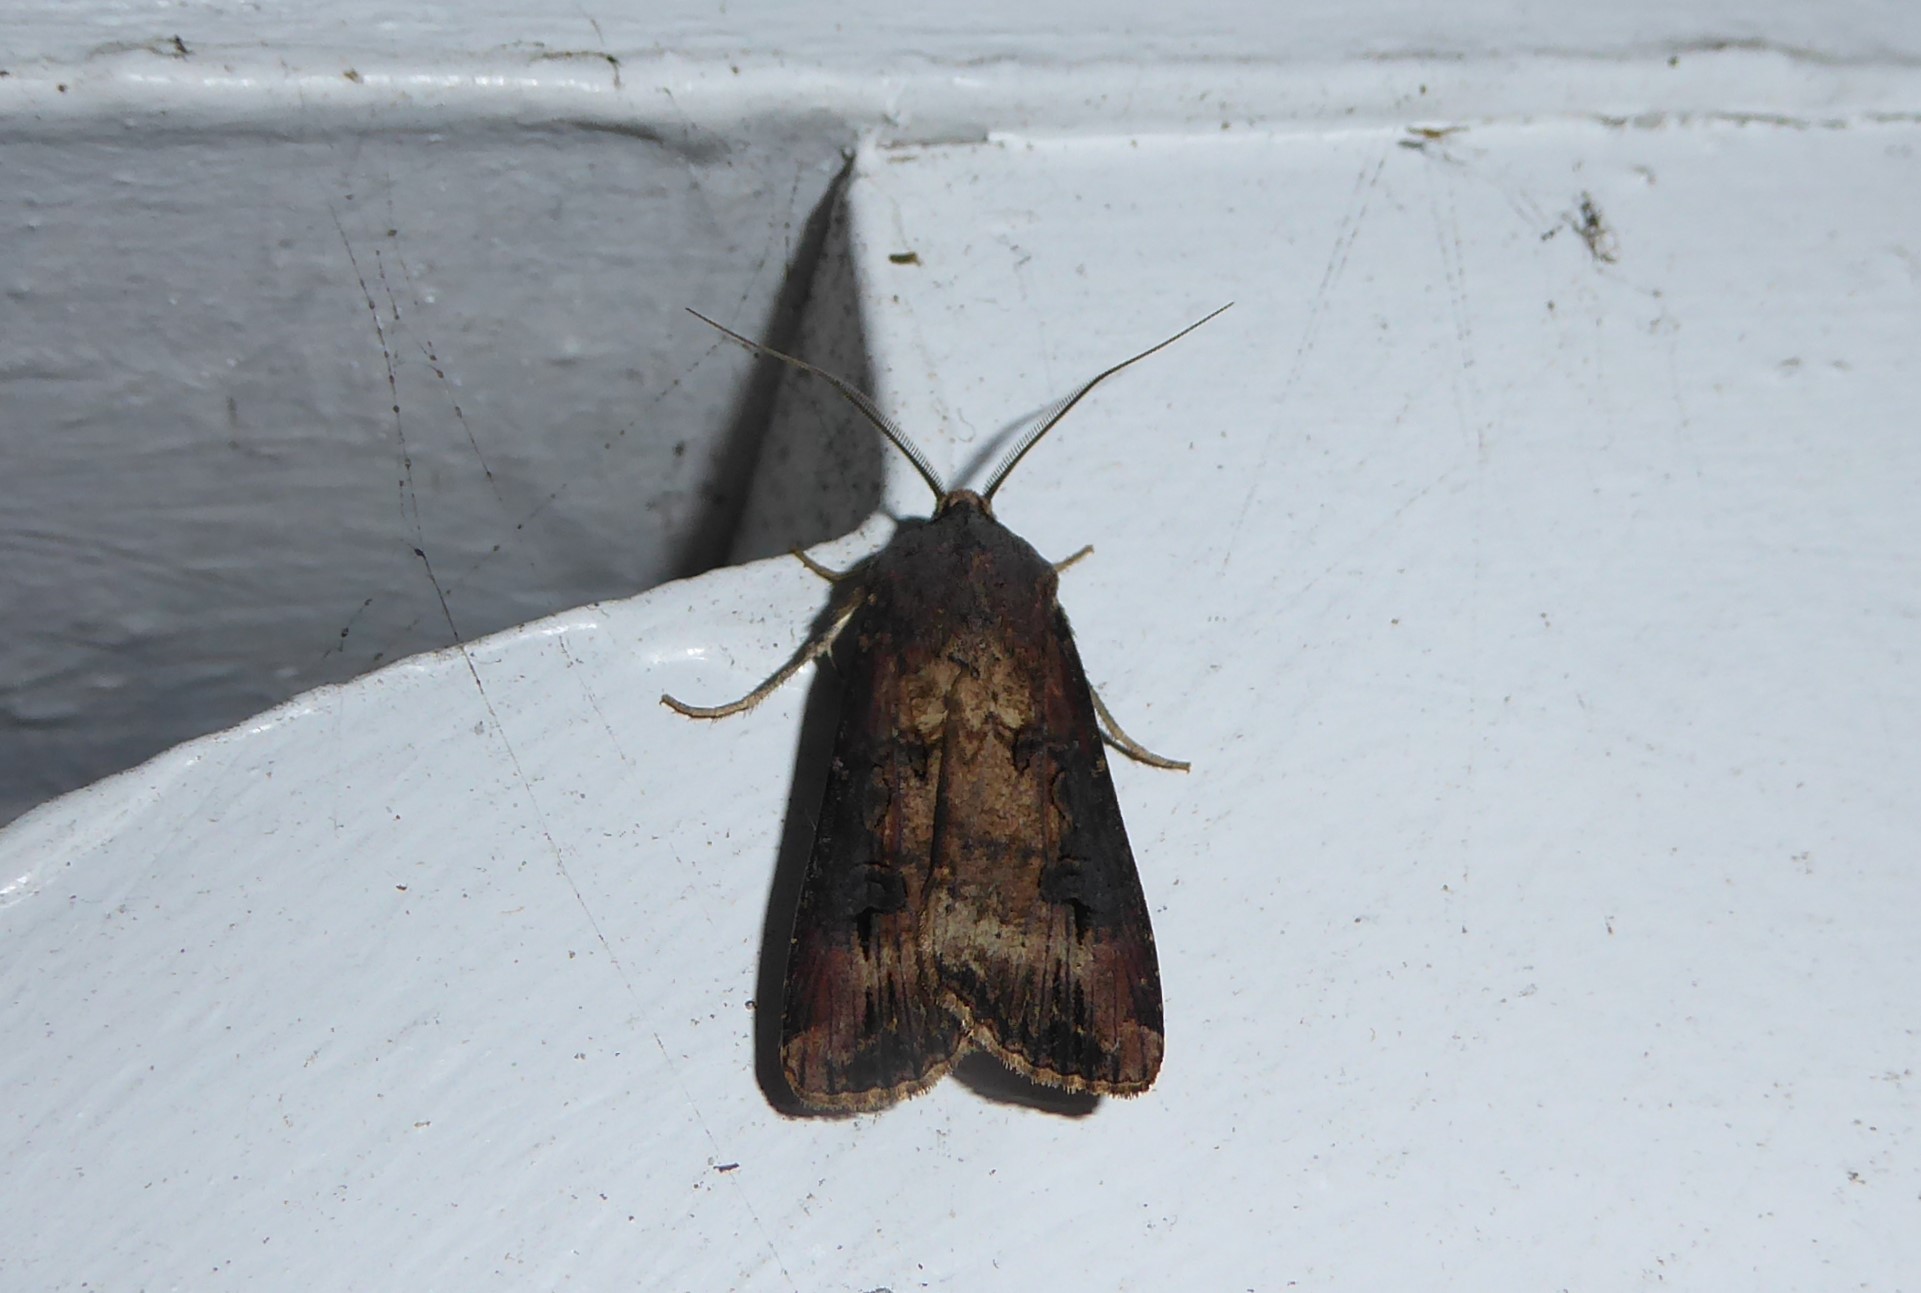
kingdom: Animalia
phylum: Arthropoda
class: Insecta
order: Lepidoptera
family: Noctuidae
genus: Agrotis
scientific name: Agrotis ipsilon
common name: Dark sword-grass
